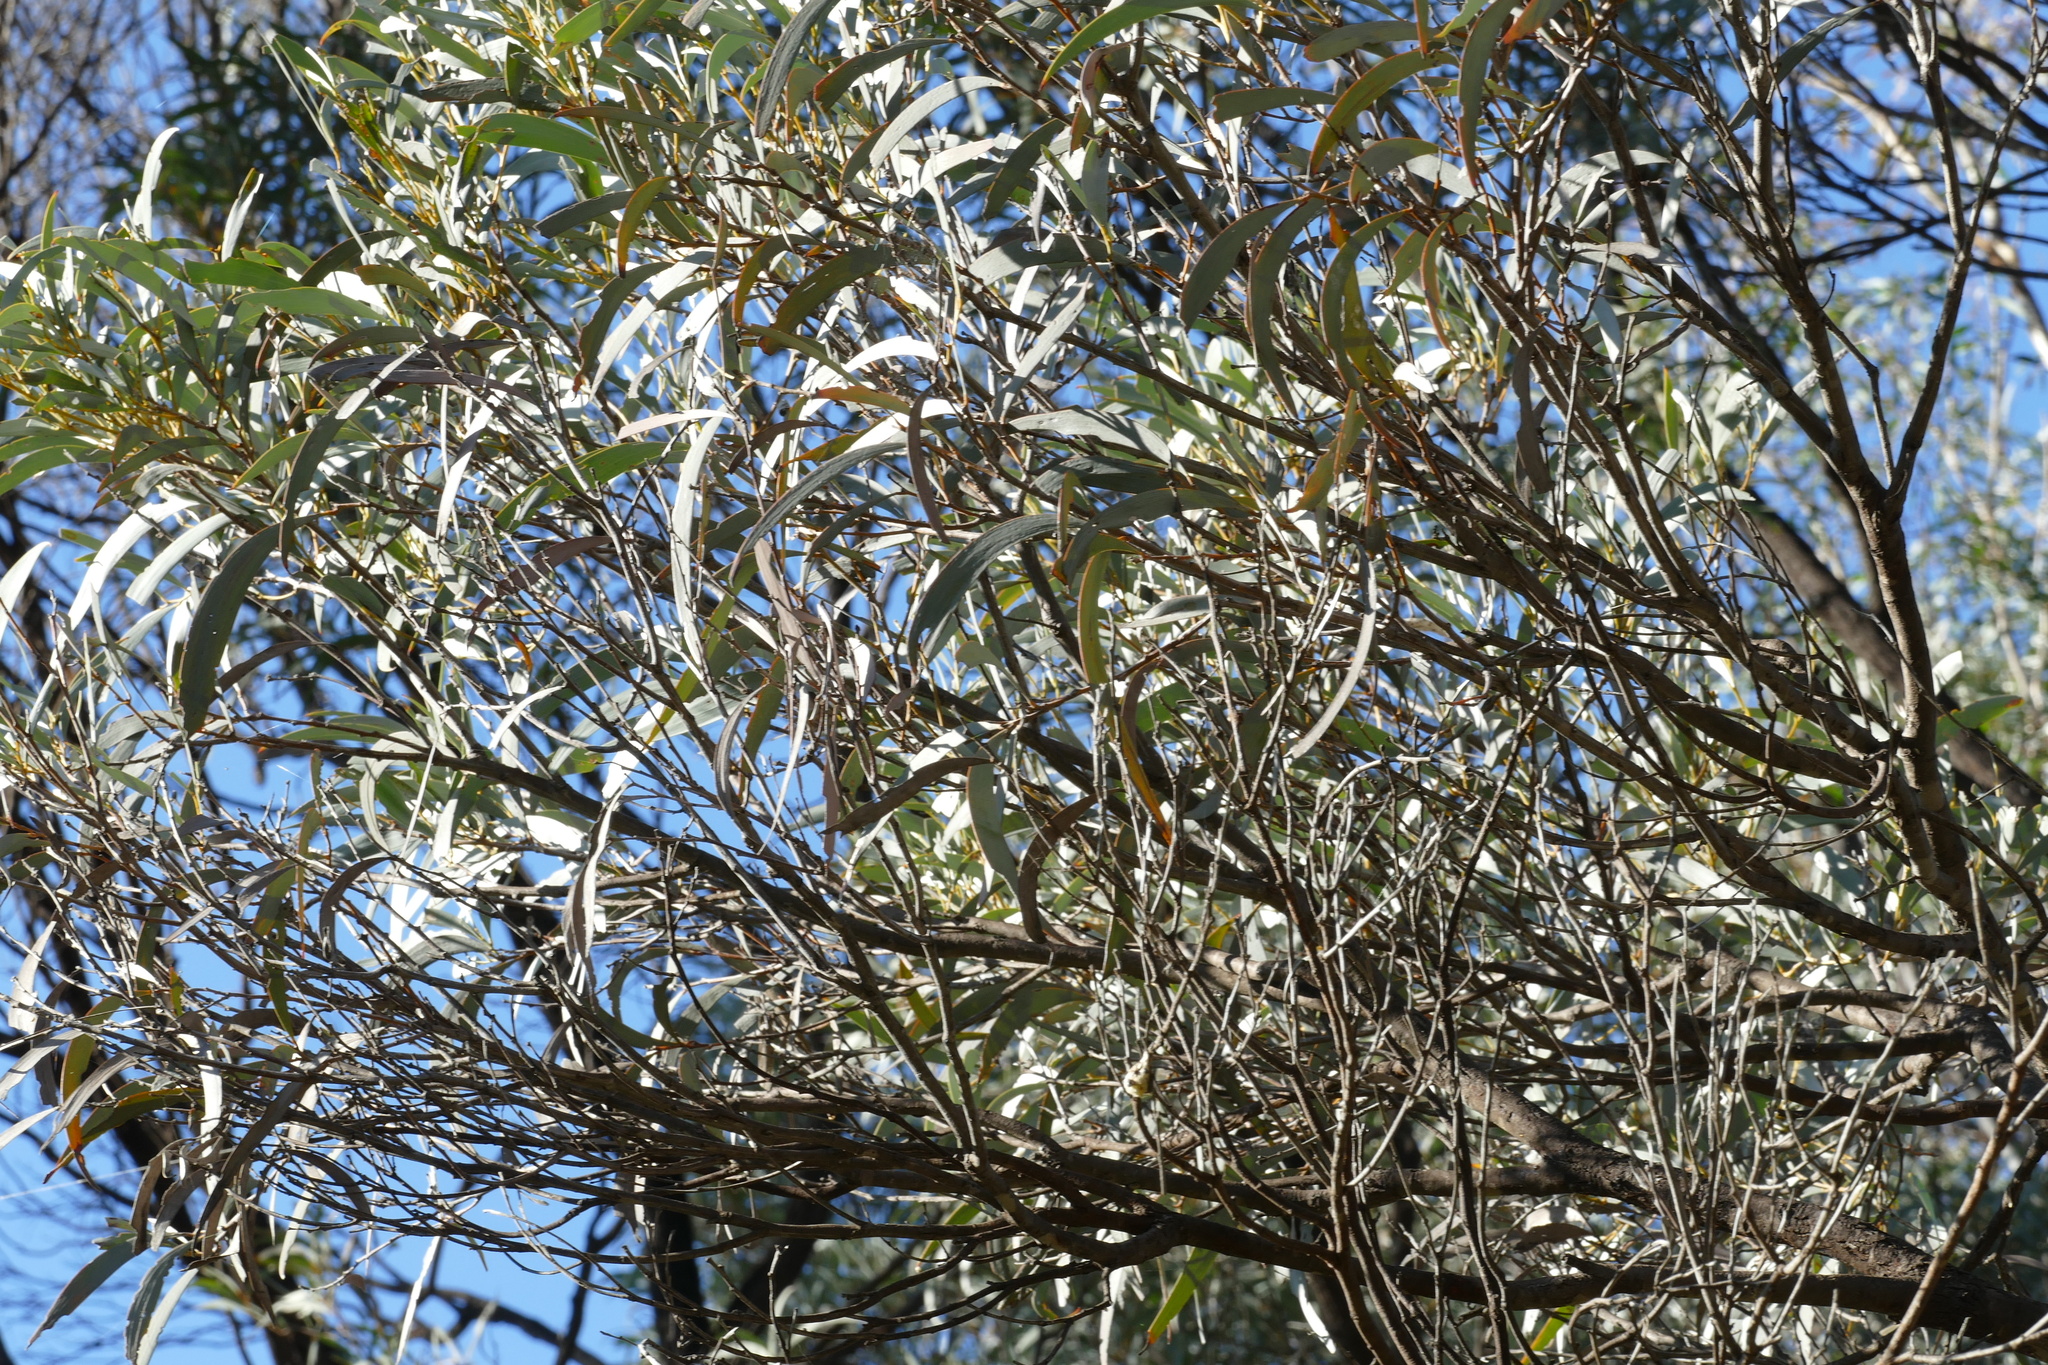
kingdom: Plantae
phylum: Tracheophyta
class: Magnoliopsida
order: Fabales
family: Fabaceae
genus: Acacia
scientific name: Acacia harpophylla
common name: Brigalow
